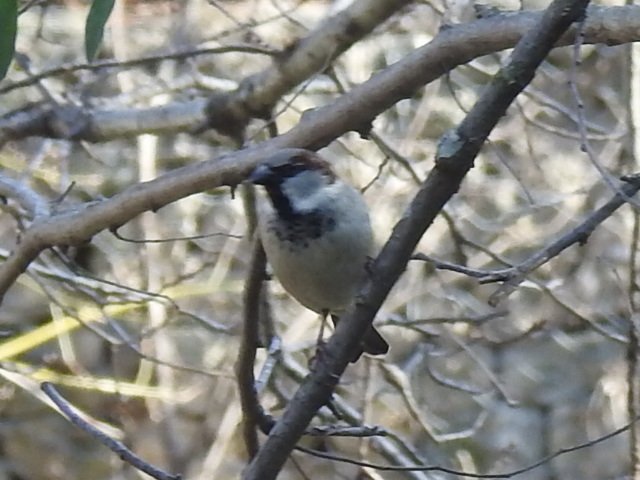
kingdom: Animalia
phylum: Chordata
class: Aves
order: Passeriformes
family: Passeridae
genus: Passer
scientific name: Passer domesticus
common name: House sparrow
